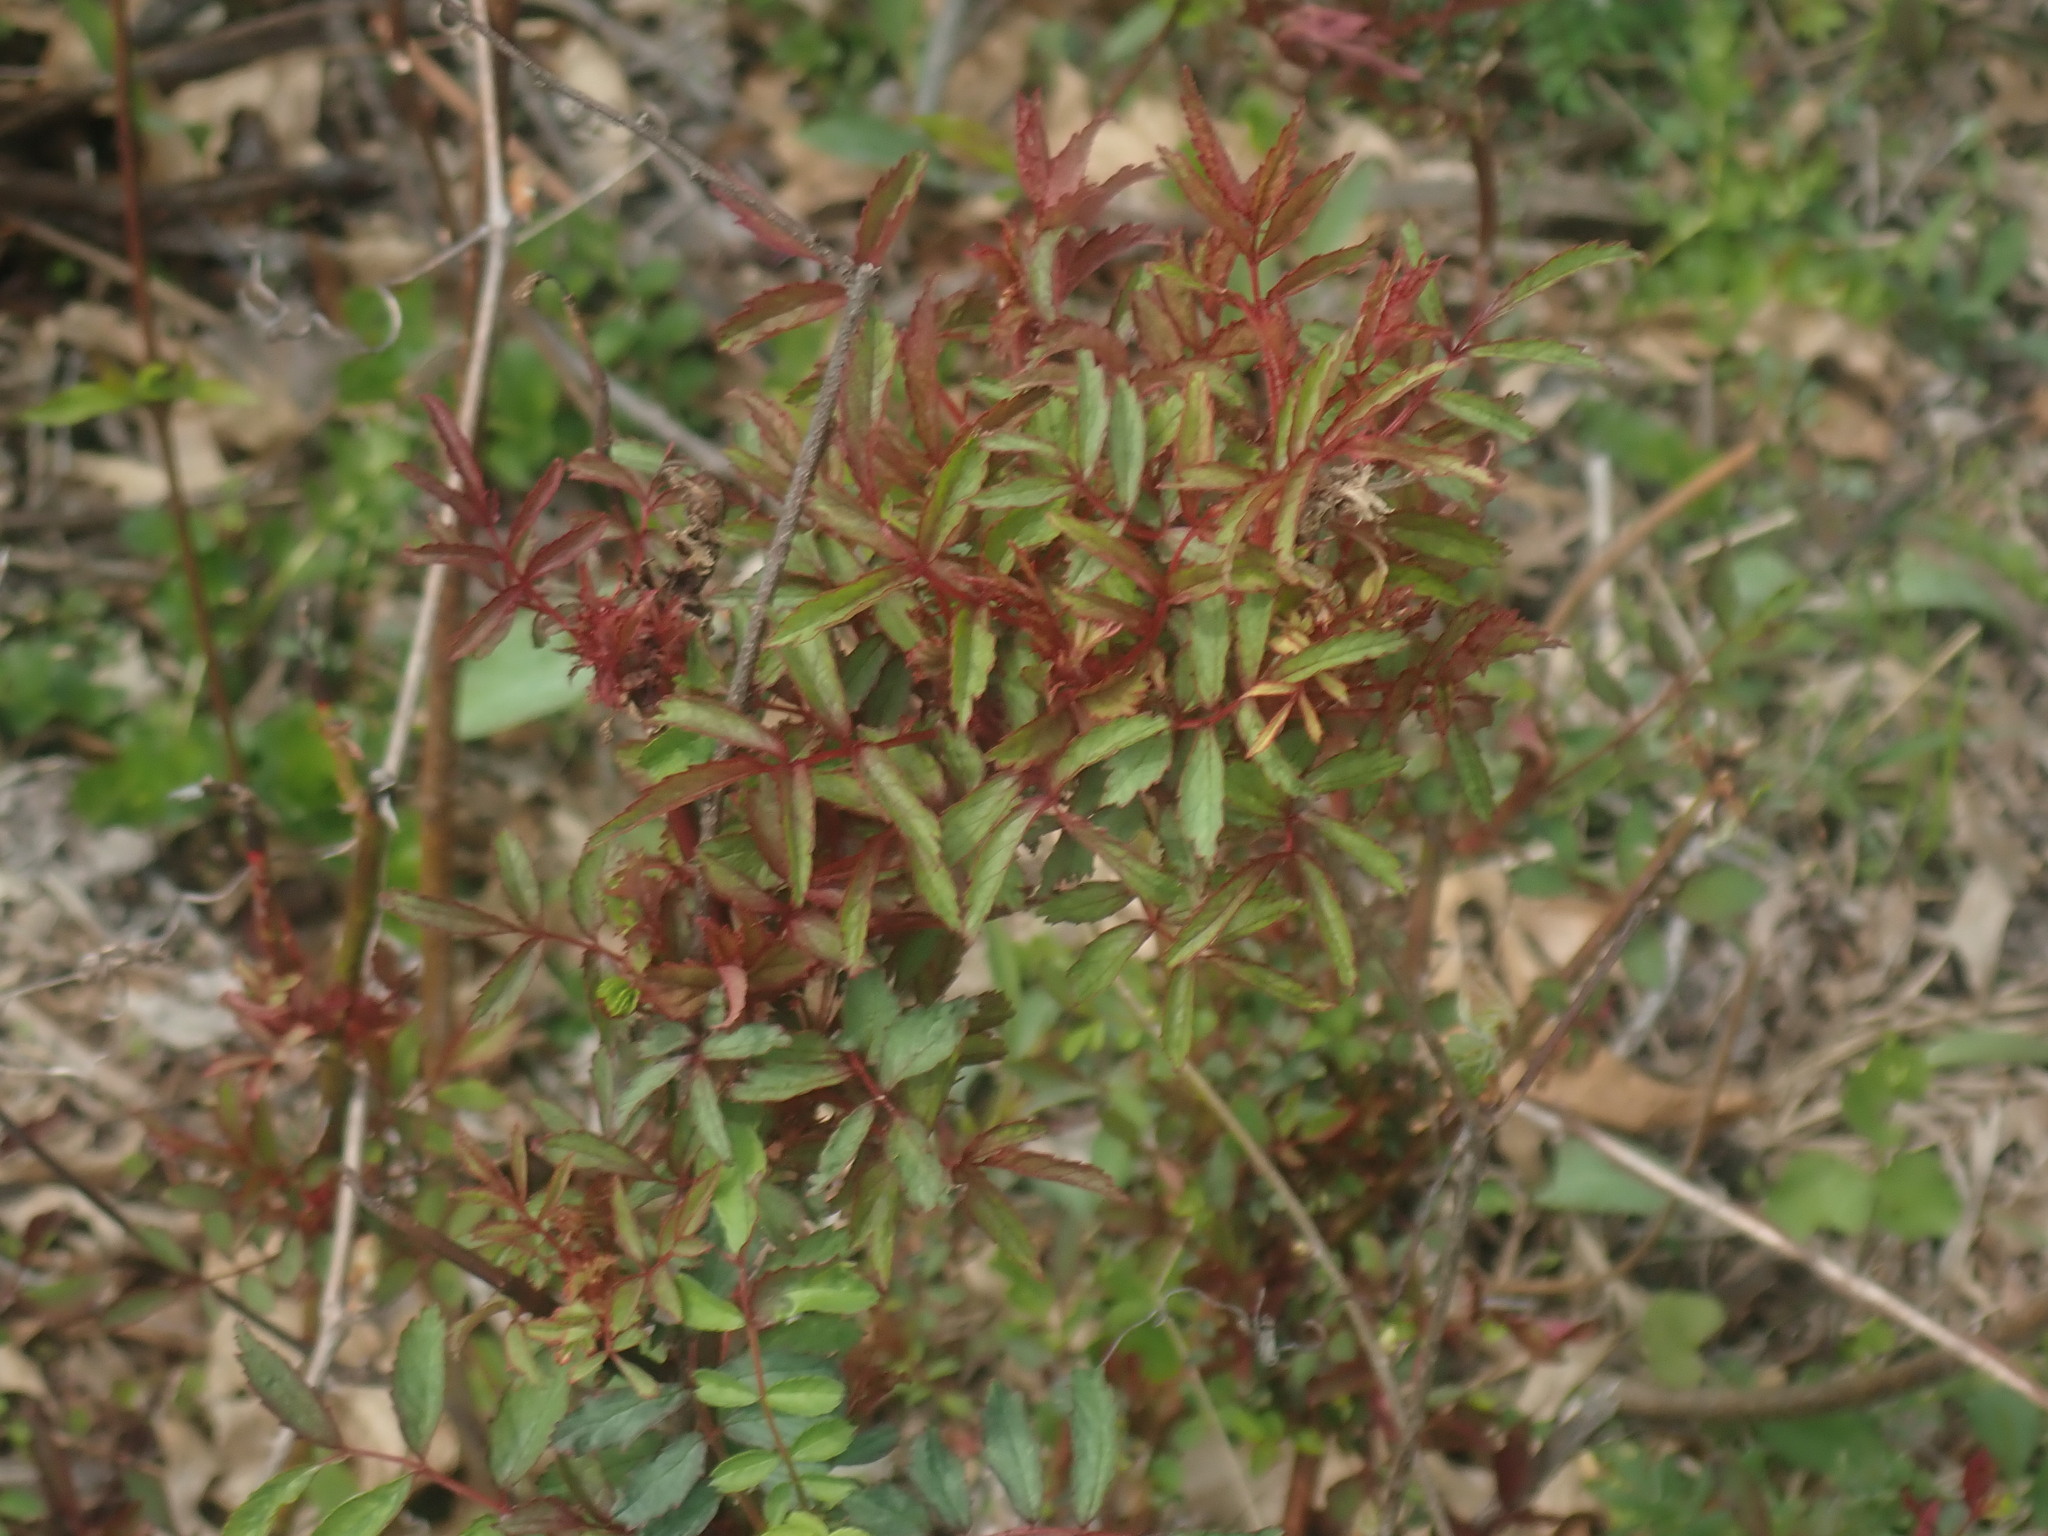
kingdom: Viruses
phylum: Negarnaviricota
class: Ellioviricetes
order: Bunyavirales
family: Fimoviridae
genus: Emaravirus
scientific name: Emaravirus rosae
